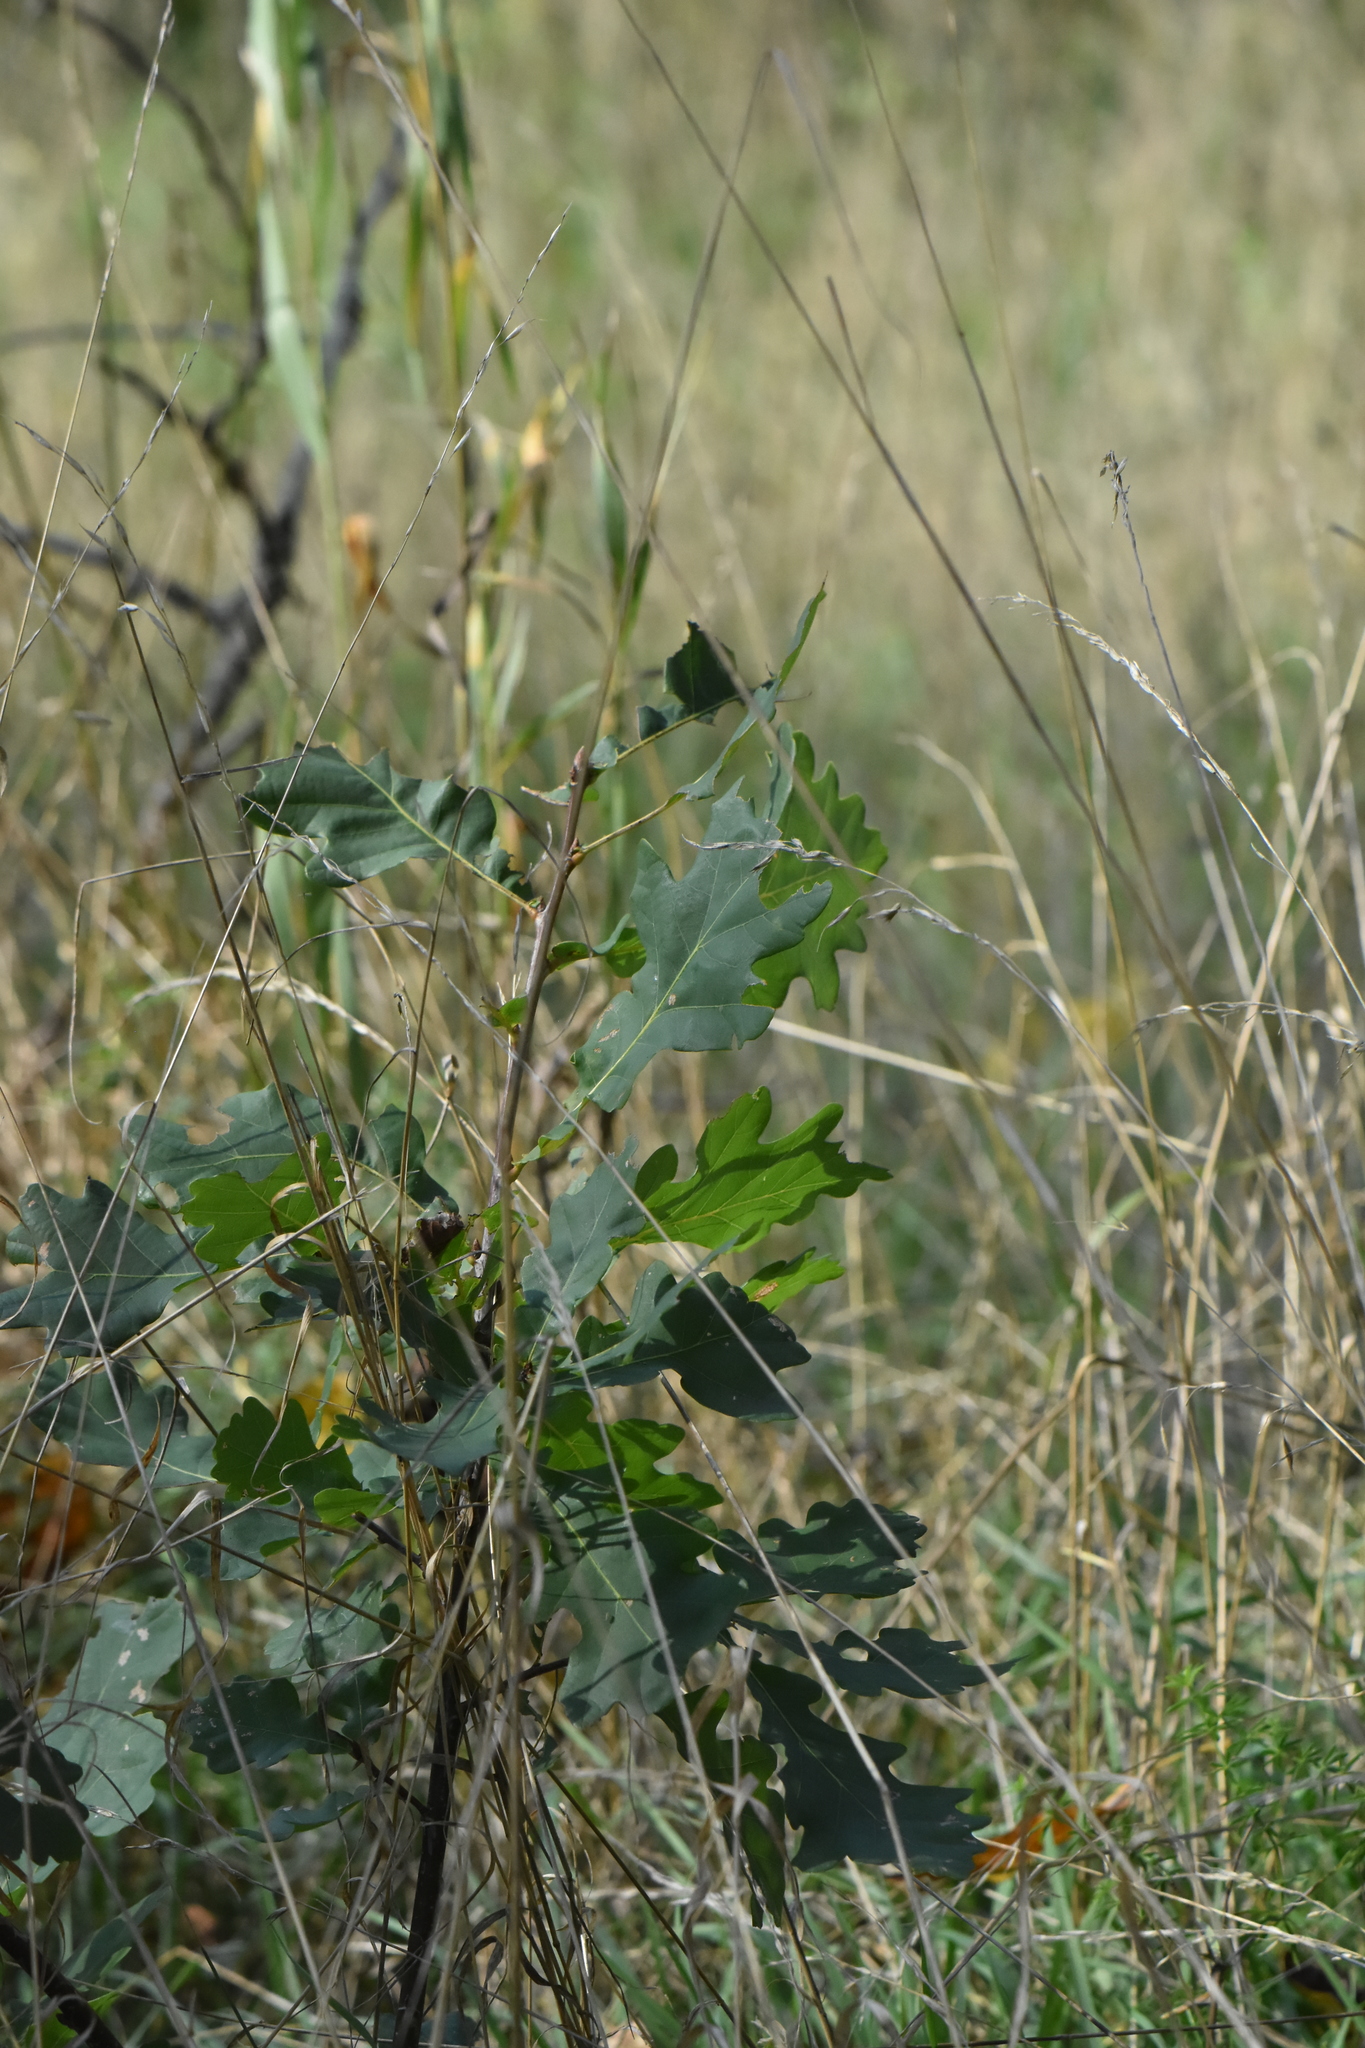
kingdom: Plantae
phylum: Tracheophyta
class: Magnoliopsida
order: Fagales
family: Fagaceae
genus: Quercus
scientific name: Quercus robur
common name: Pedunculate oak
